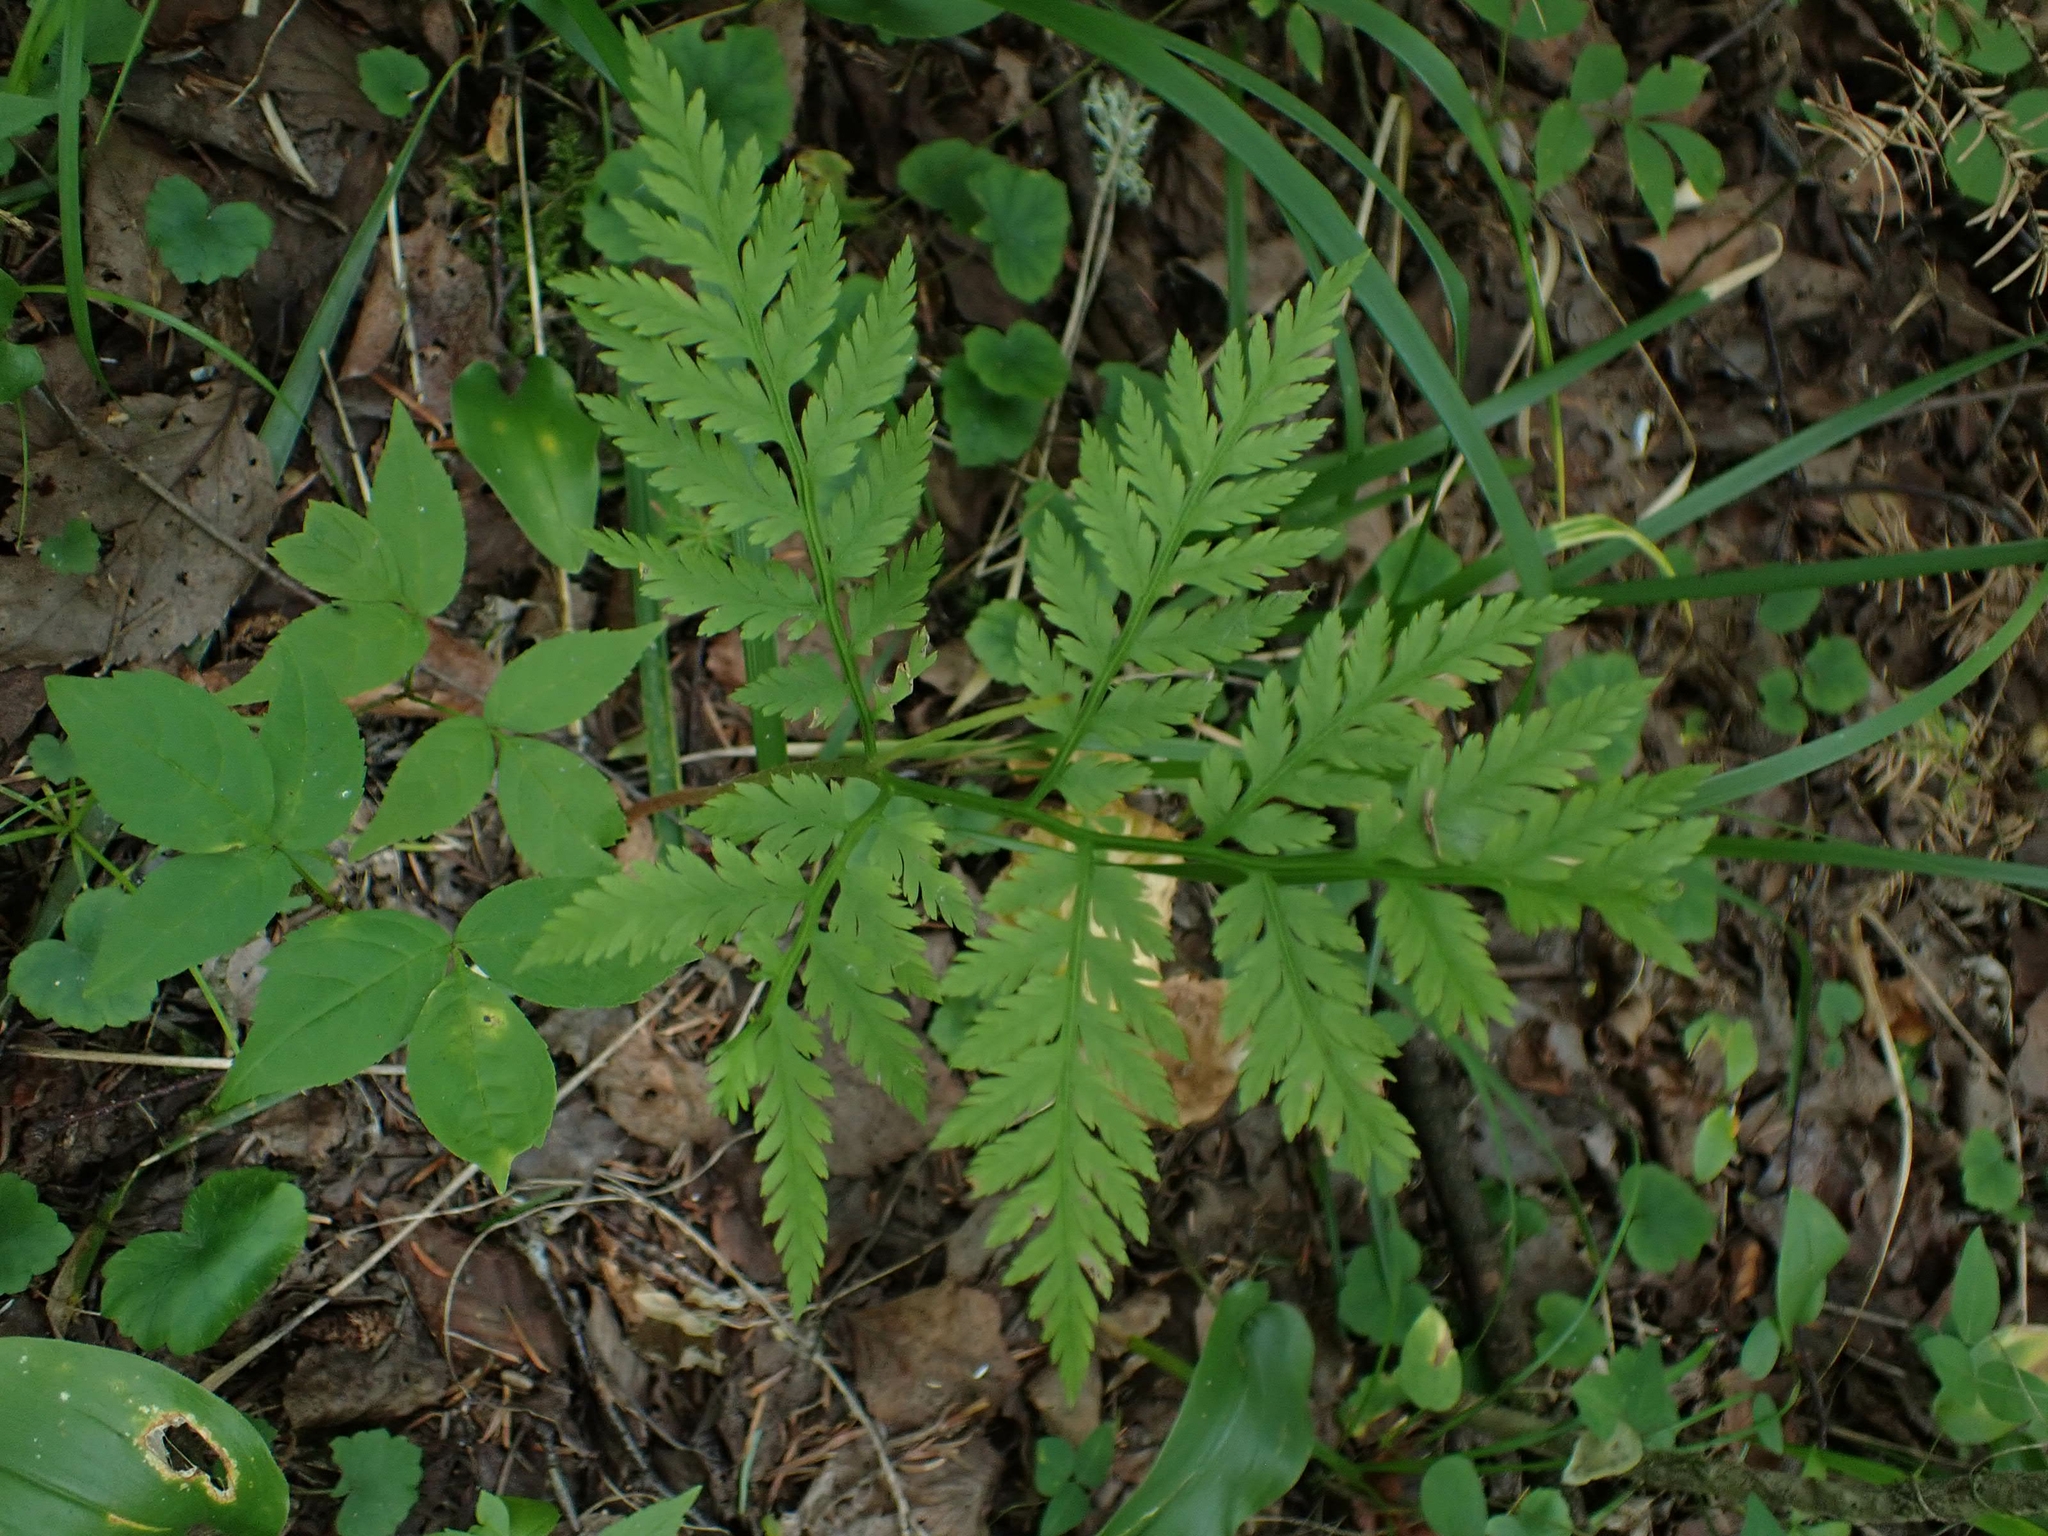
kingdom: Plantae
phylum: Tracheophyta
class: Polypodiopsida
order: Ophioglossales
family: Ophioglossaceae
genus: Botrypus
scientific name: Botrypus virginianus
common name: Common grapefern
